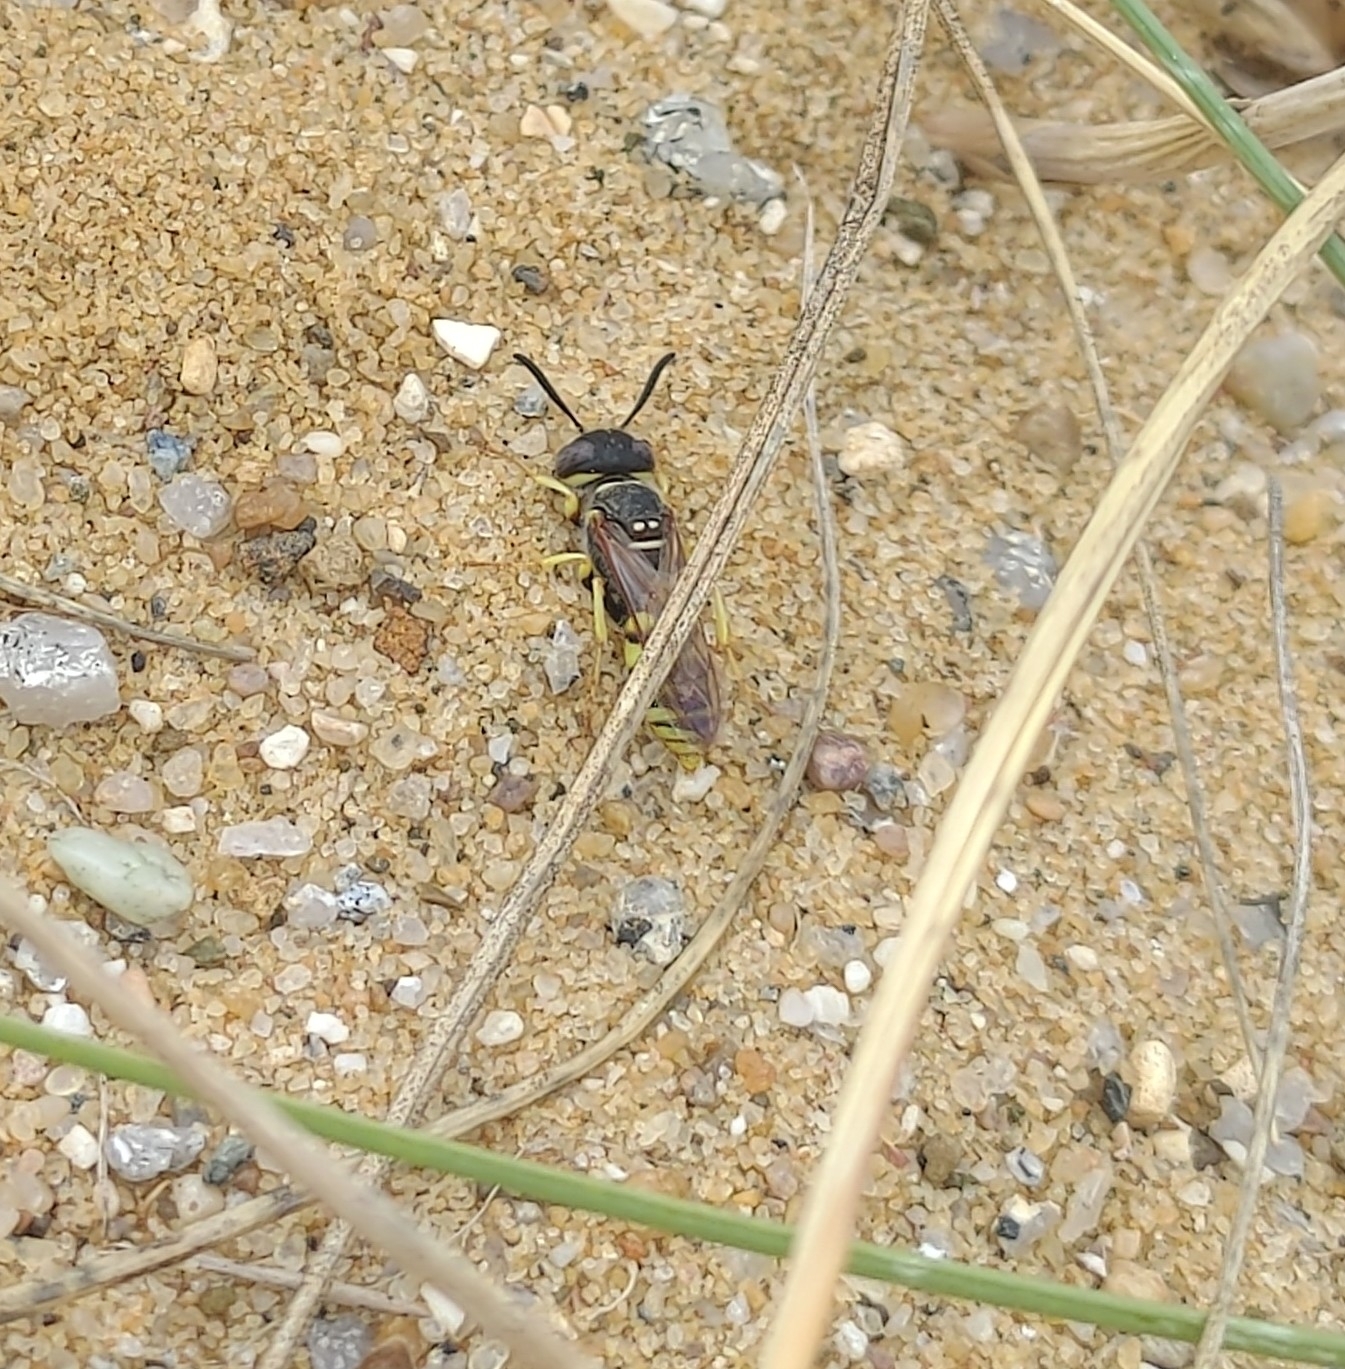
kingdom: Animalia
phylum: Arthropoda
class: Insecta
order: Hymenoptera
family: Crabronidae
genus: Philanthus
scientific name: Philanthus triangulum
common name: Bee wolf
